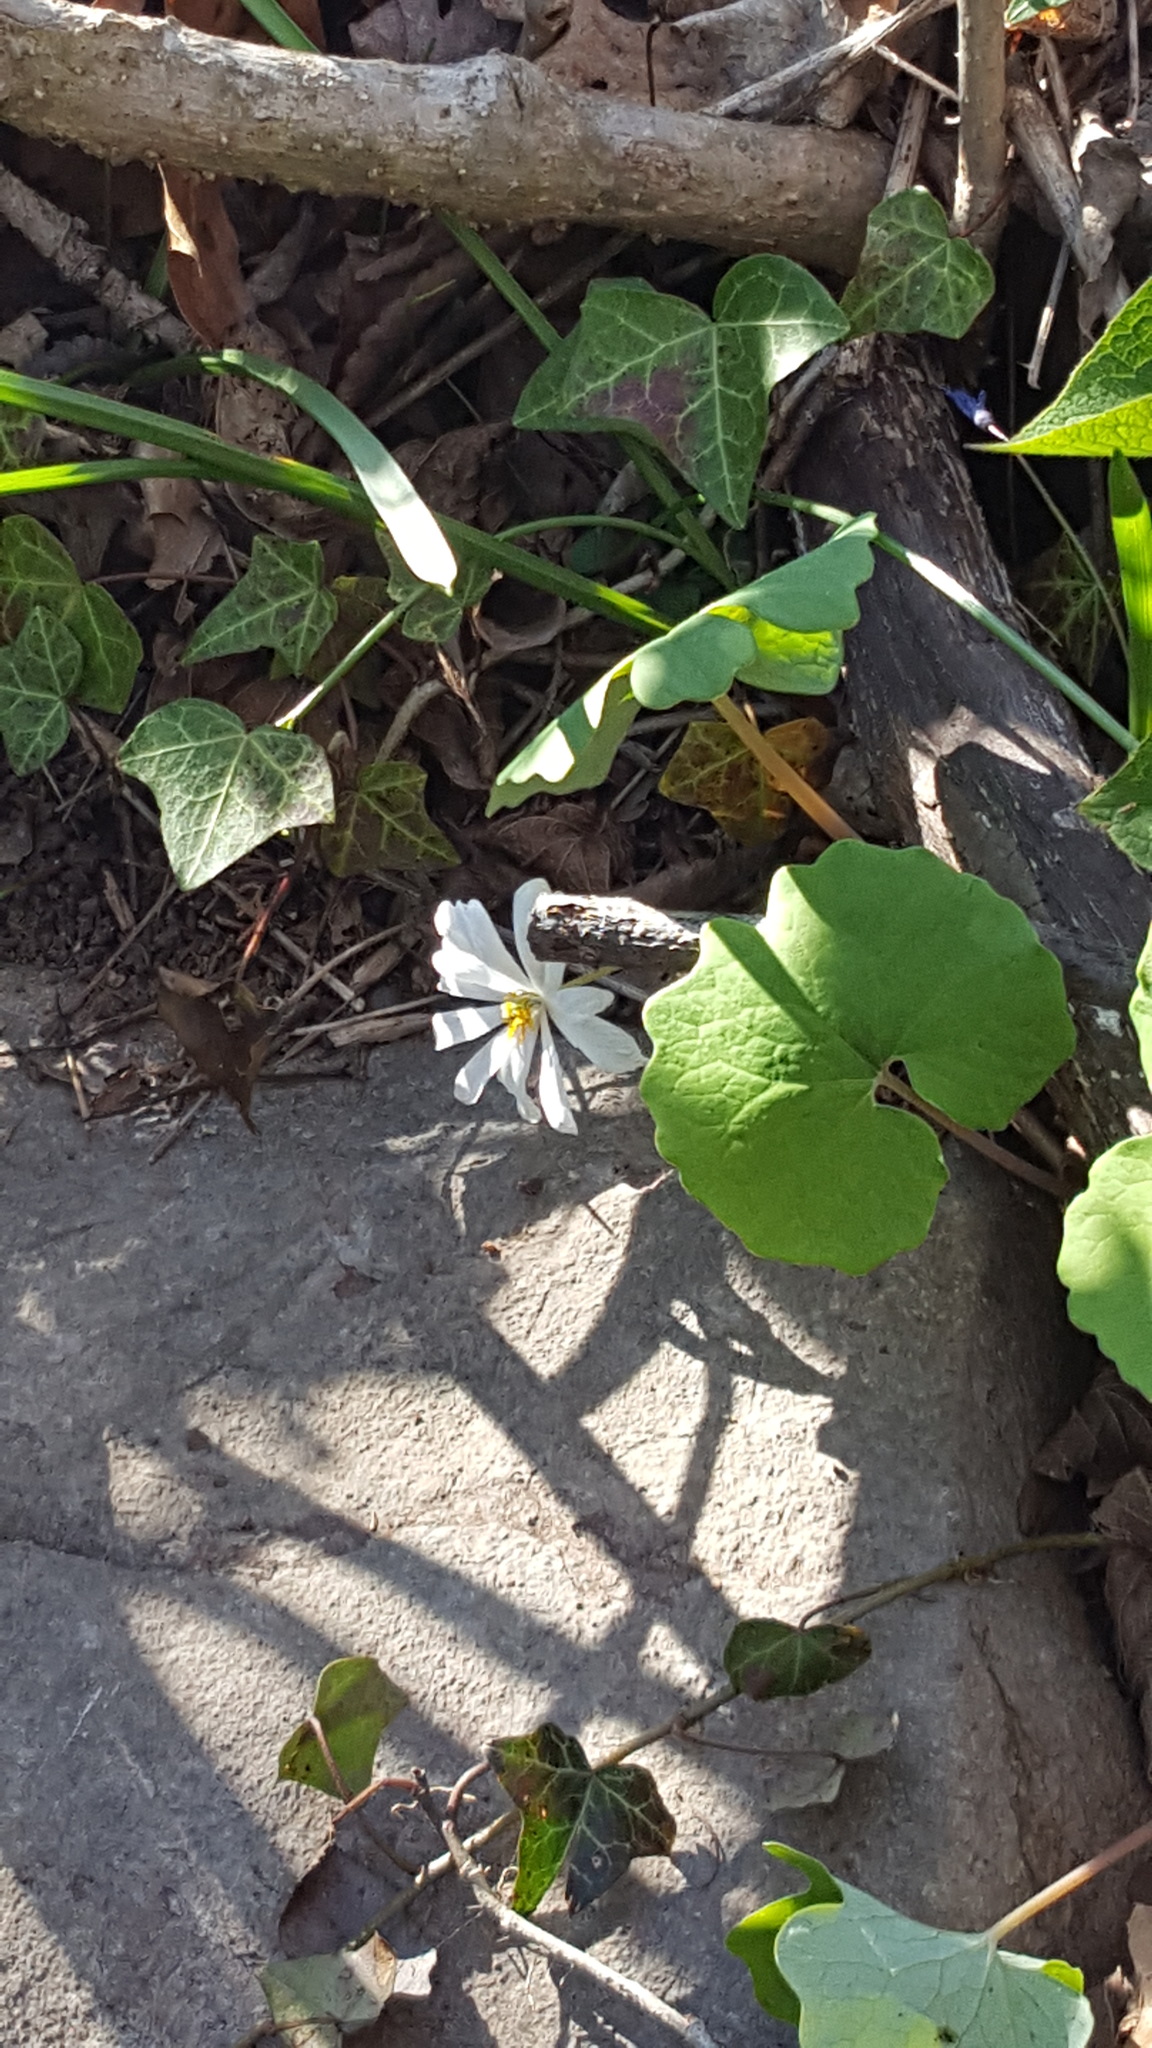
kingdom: Plantae
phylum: Tracheophyta
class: Magnoliopsida
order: Ranunculales
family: Papaveraceae
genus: Sanguinaria
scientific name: Sanguinaria canadensis
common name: Bloodroot
